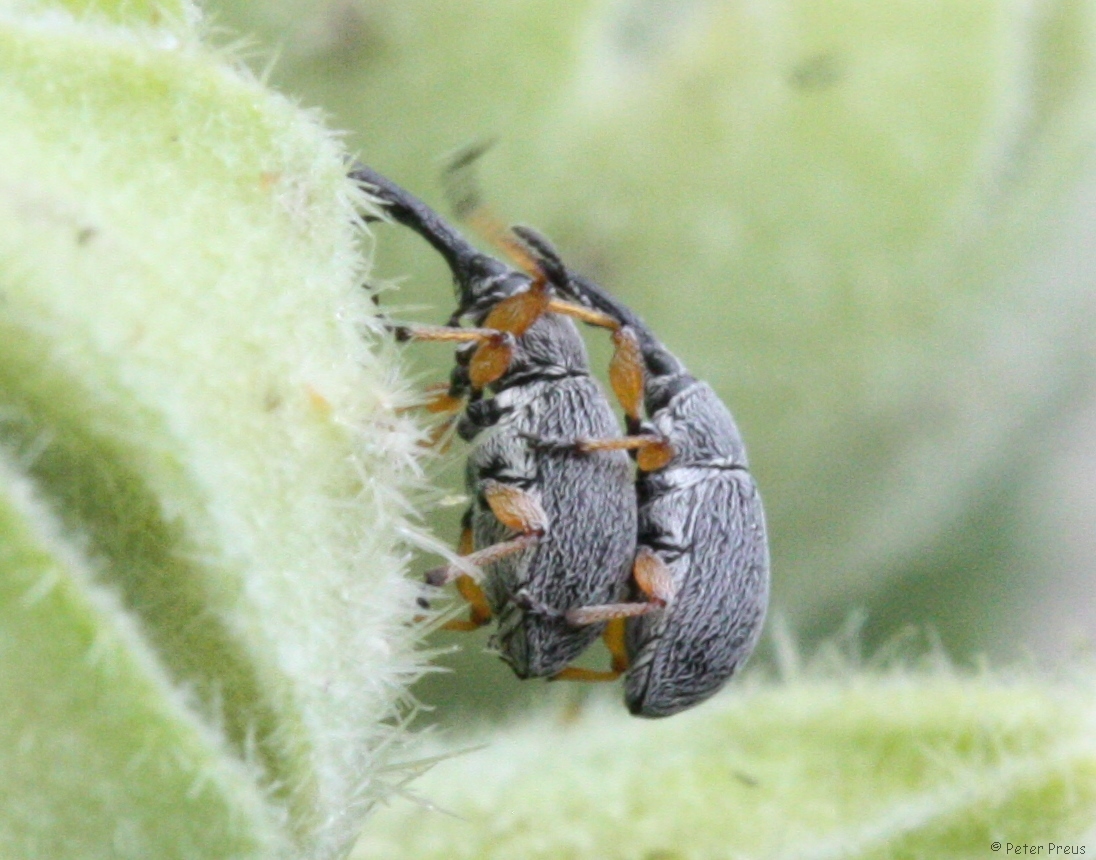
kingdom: Animalia
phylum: Arthropoda
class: Insecta
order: Coleoptera
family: Brentidae
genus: Rhopalapion
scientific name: Rhopalapion longirostre
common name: Hollyhock weevil
